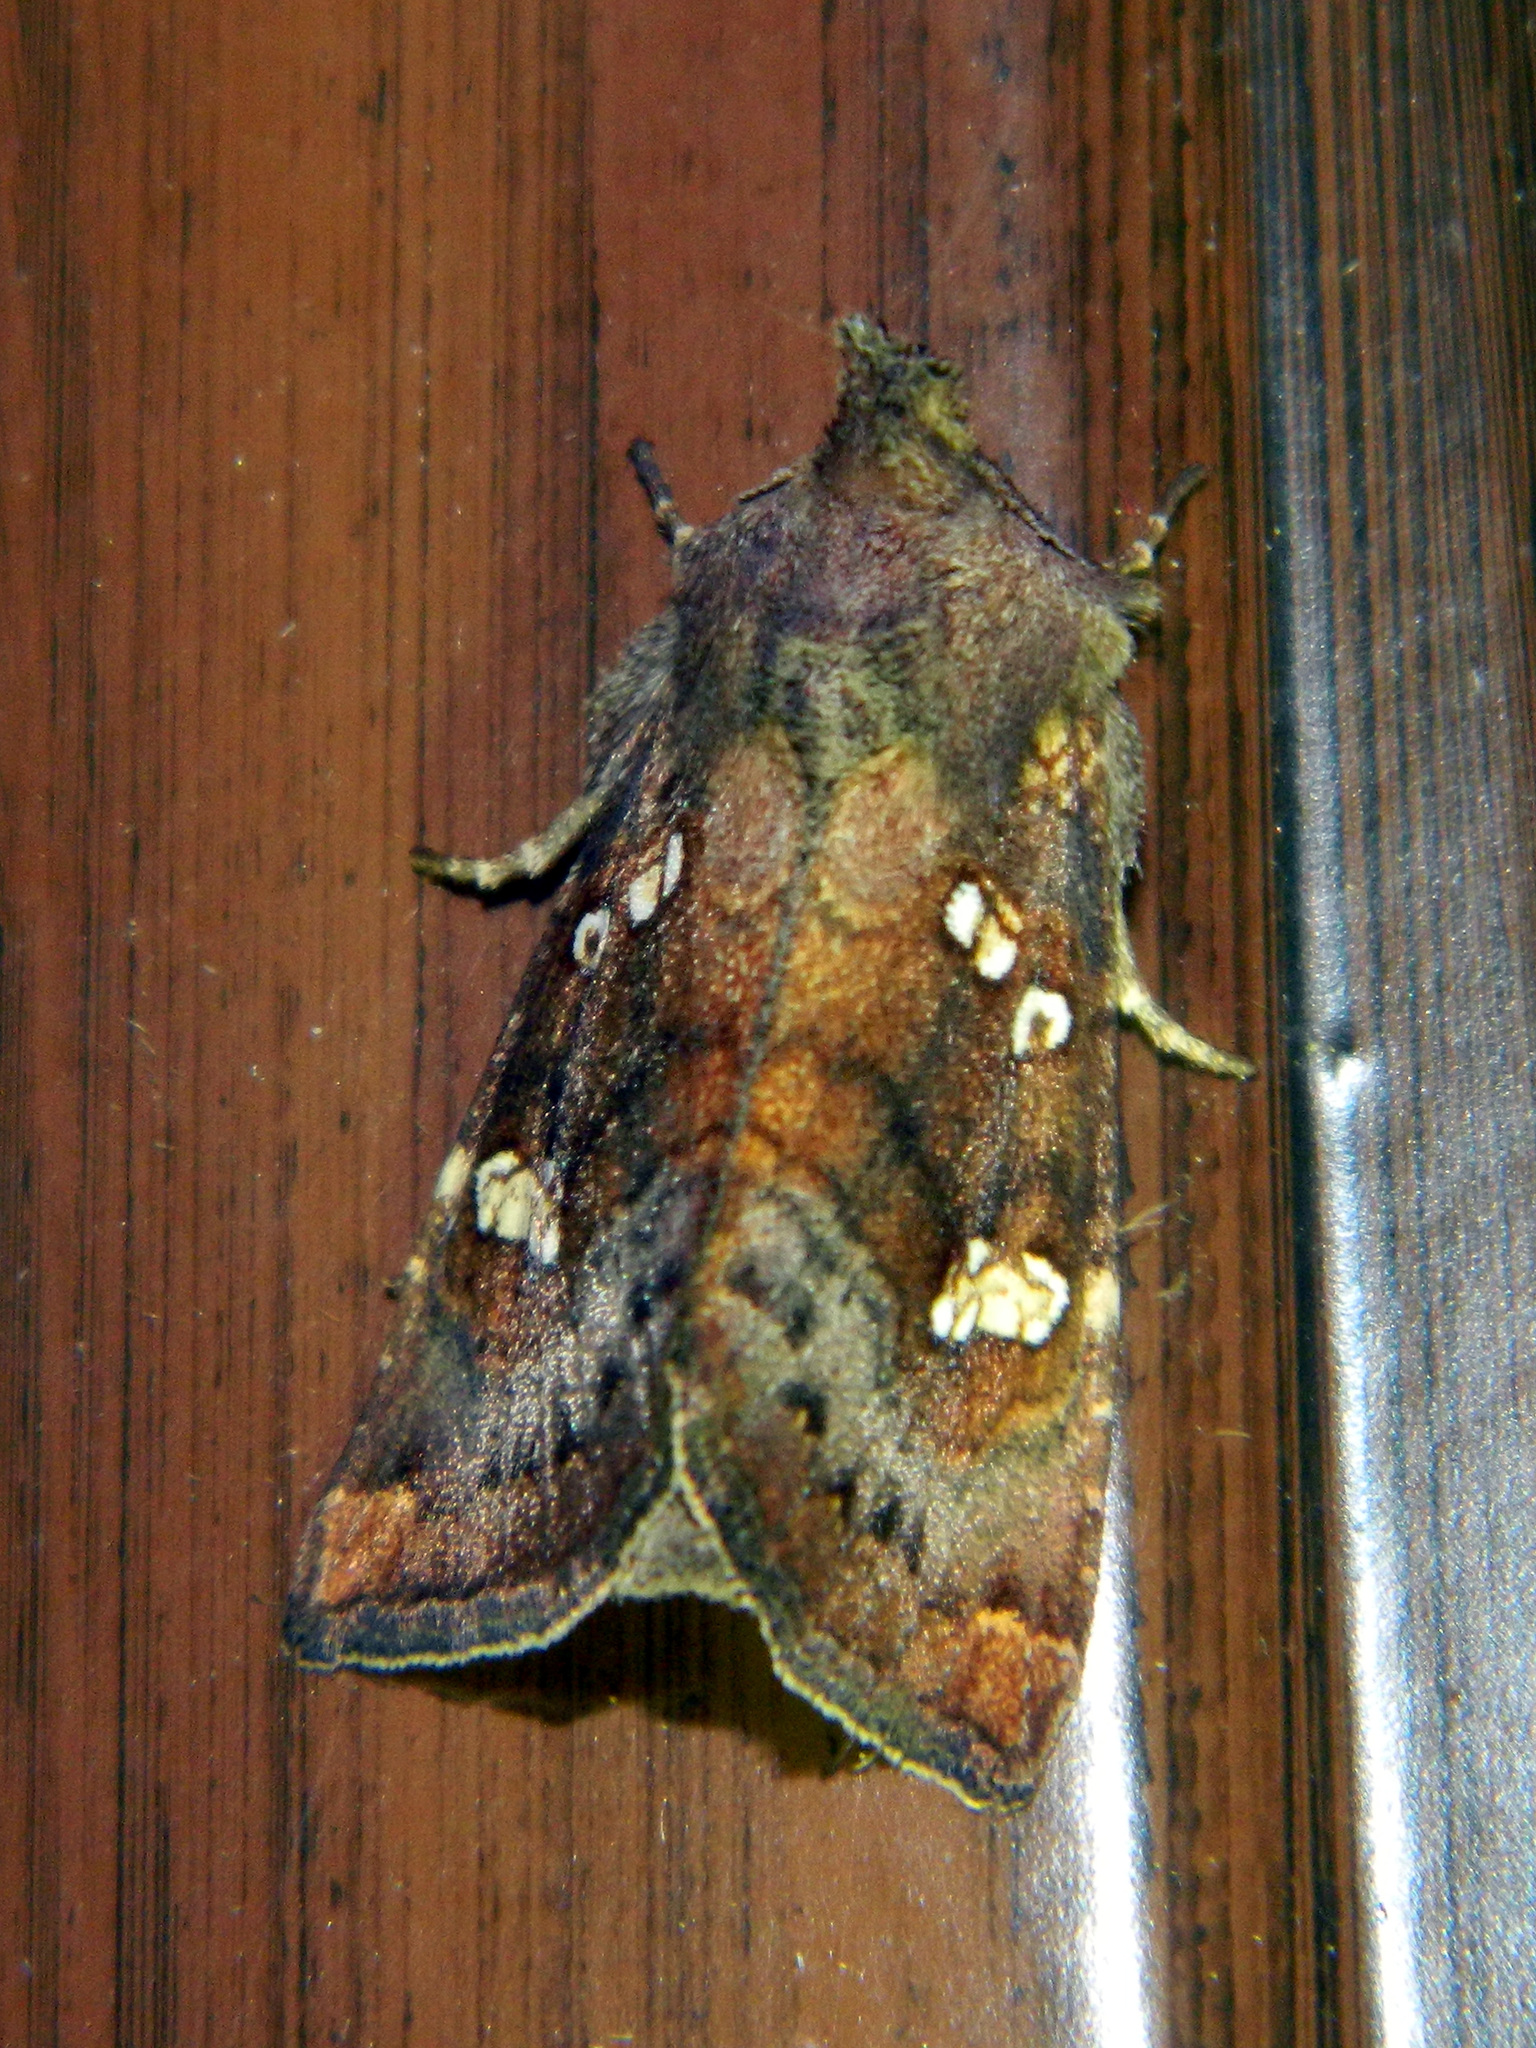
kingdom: Animalia
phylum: Arthropoda
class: Insecta
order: Lepidoptera
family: Noctuidae
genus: Papaipema
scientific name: Papaipema unimoda
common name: Meadow rue borer moth
